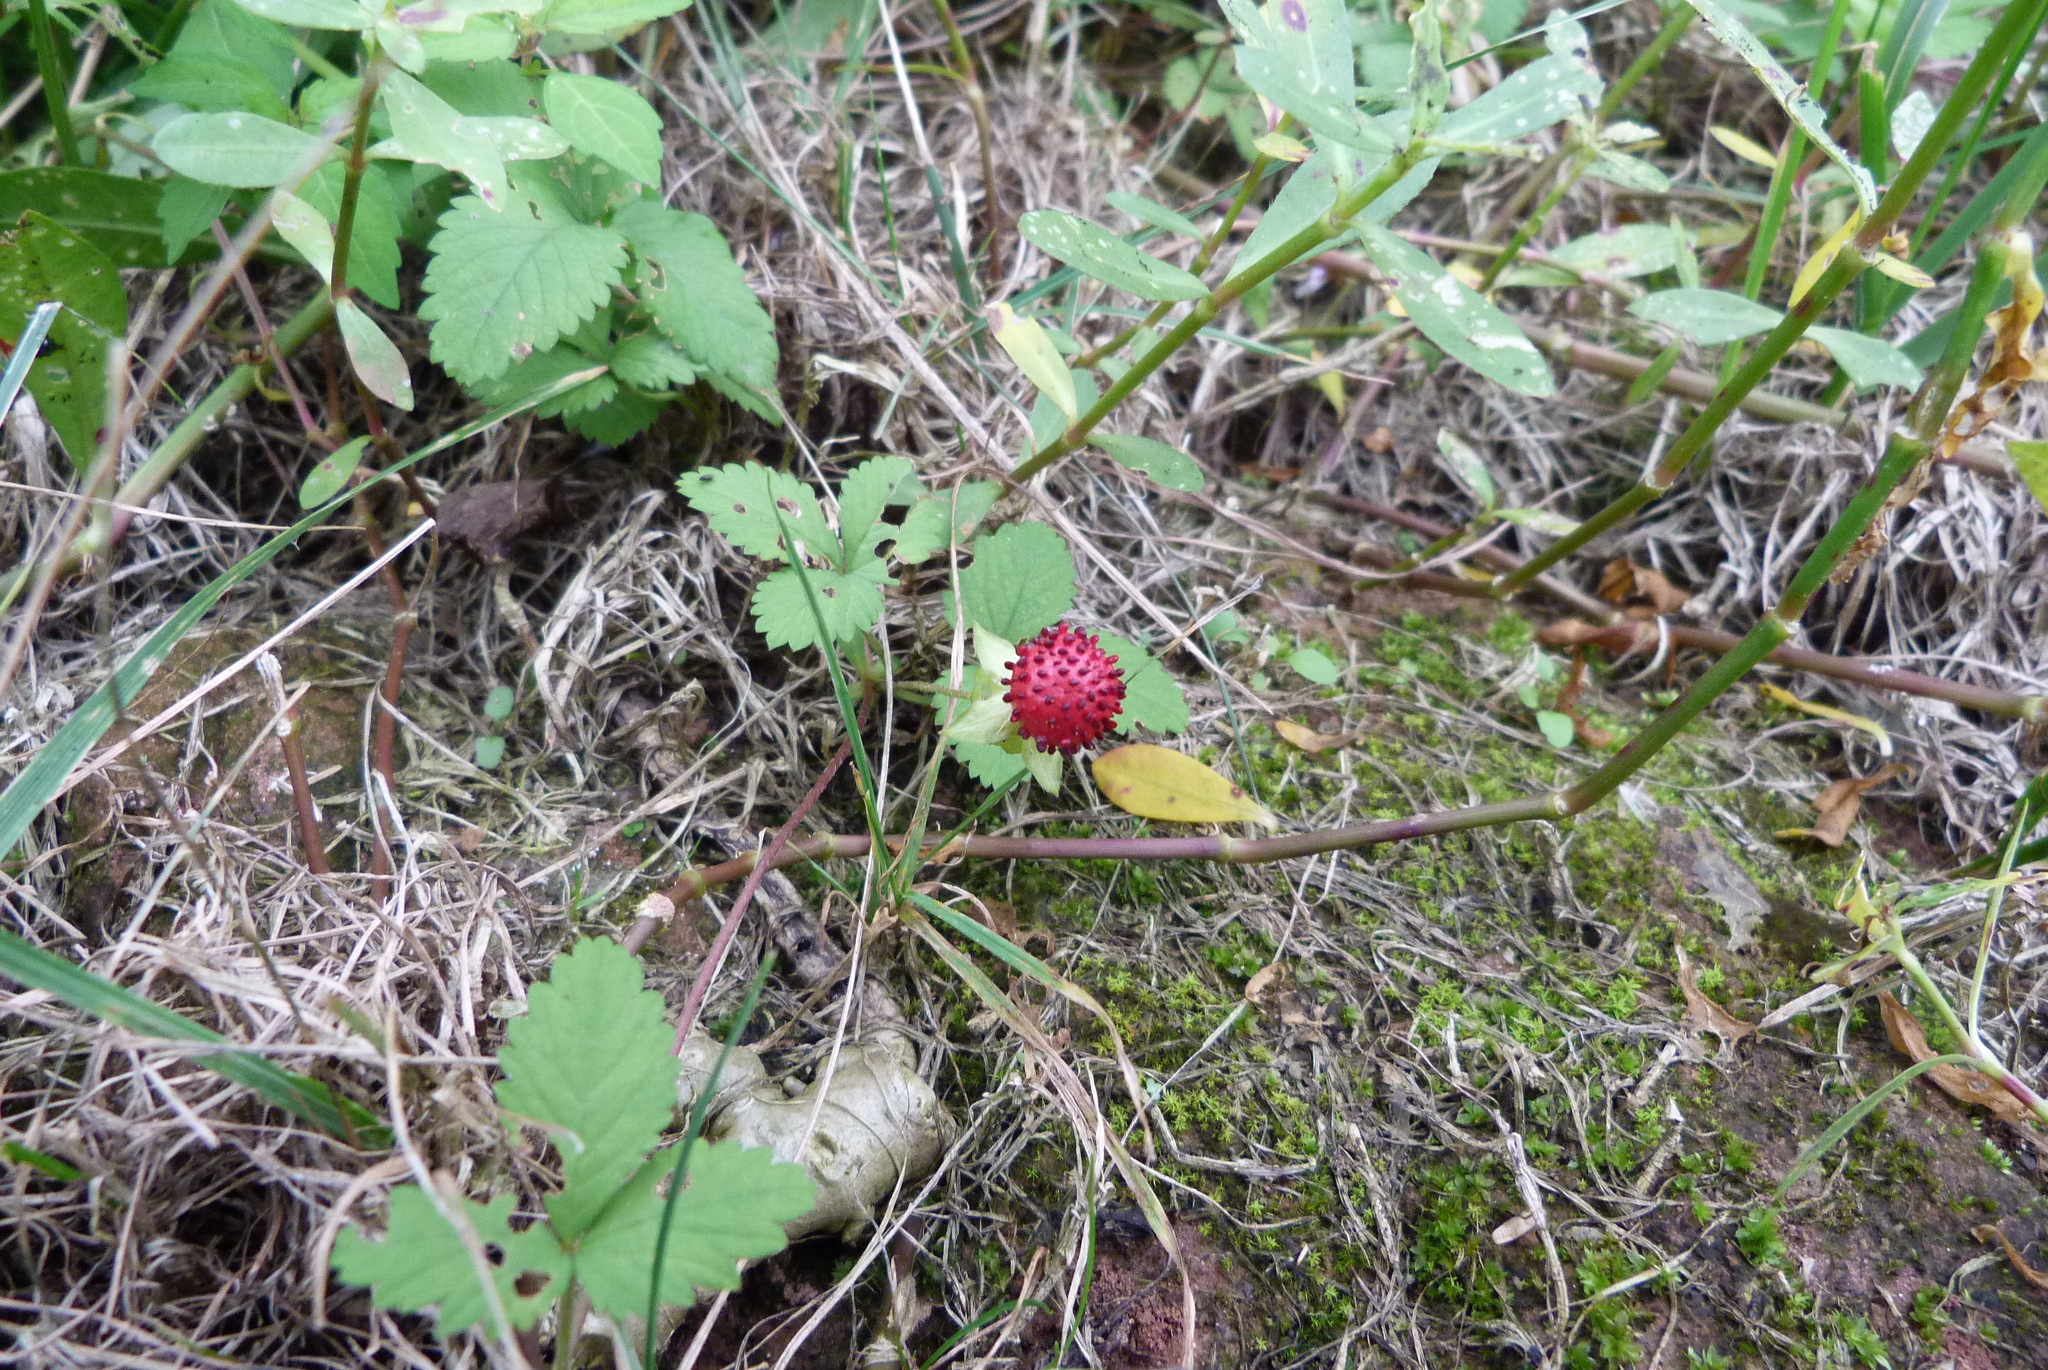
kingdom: Plantae
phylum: Tracheophyta
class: Magnoliopsida
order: Rosales
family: Rosaceae
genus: Potentilla
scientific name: Potentilla indica
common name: Yellow-flowered strawberry
